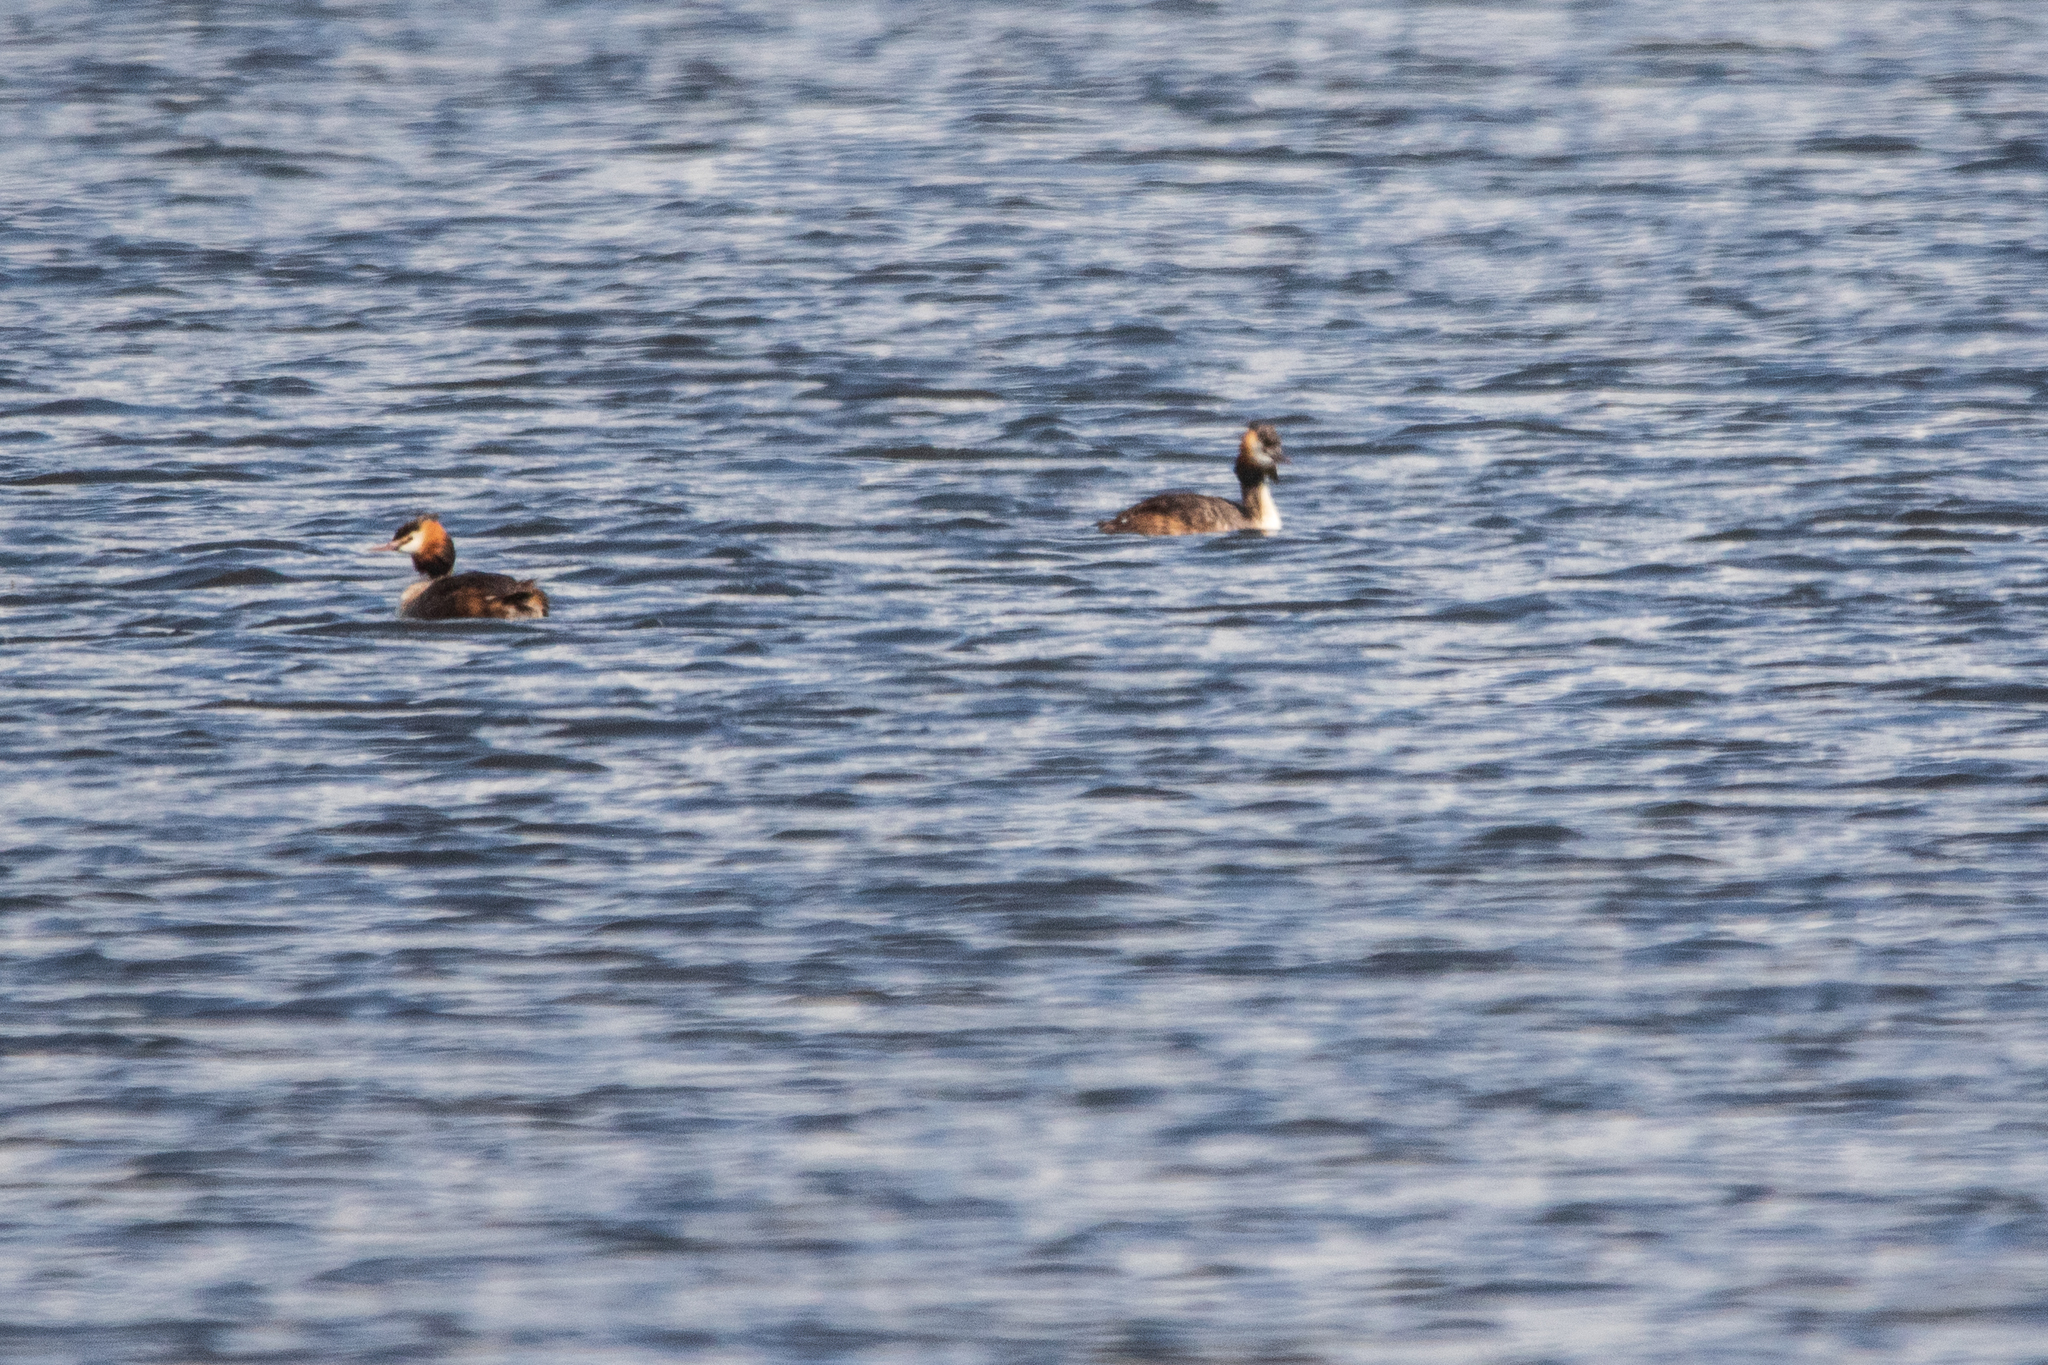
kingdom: Animalia
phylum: Chordata
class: Aves
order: Podicipediformes
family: Podicipedidae
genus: Podiceps
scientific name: Podiceps cristatus
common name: Great crested grebe
